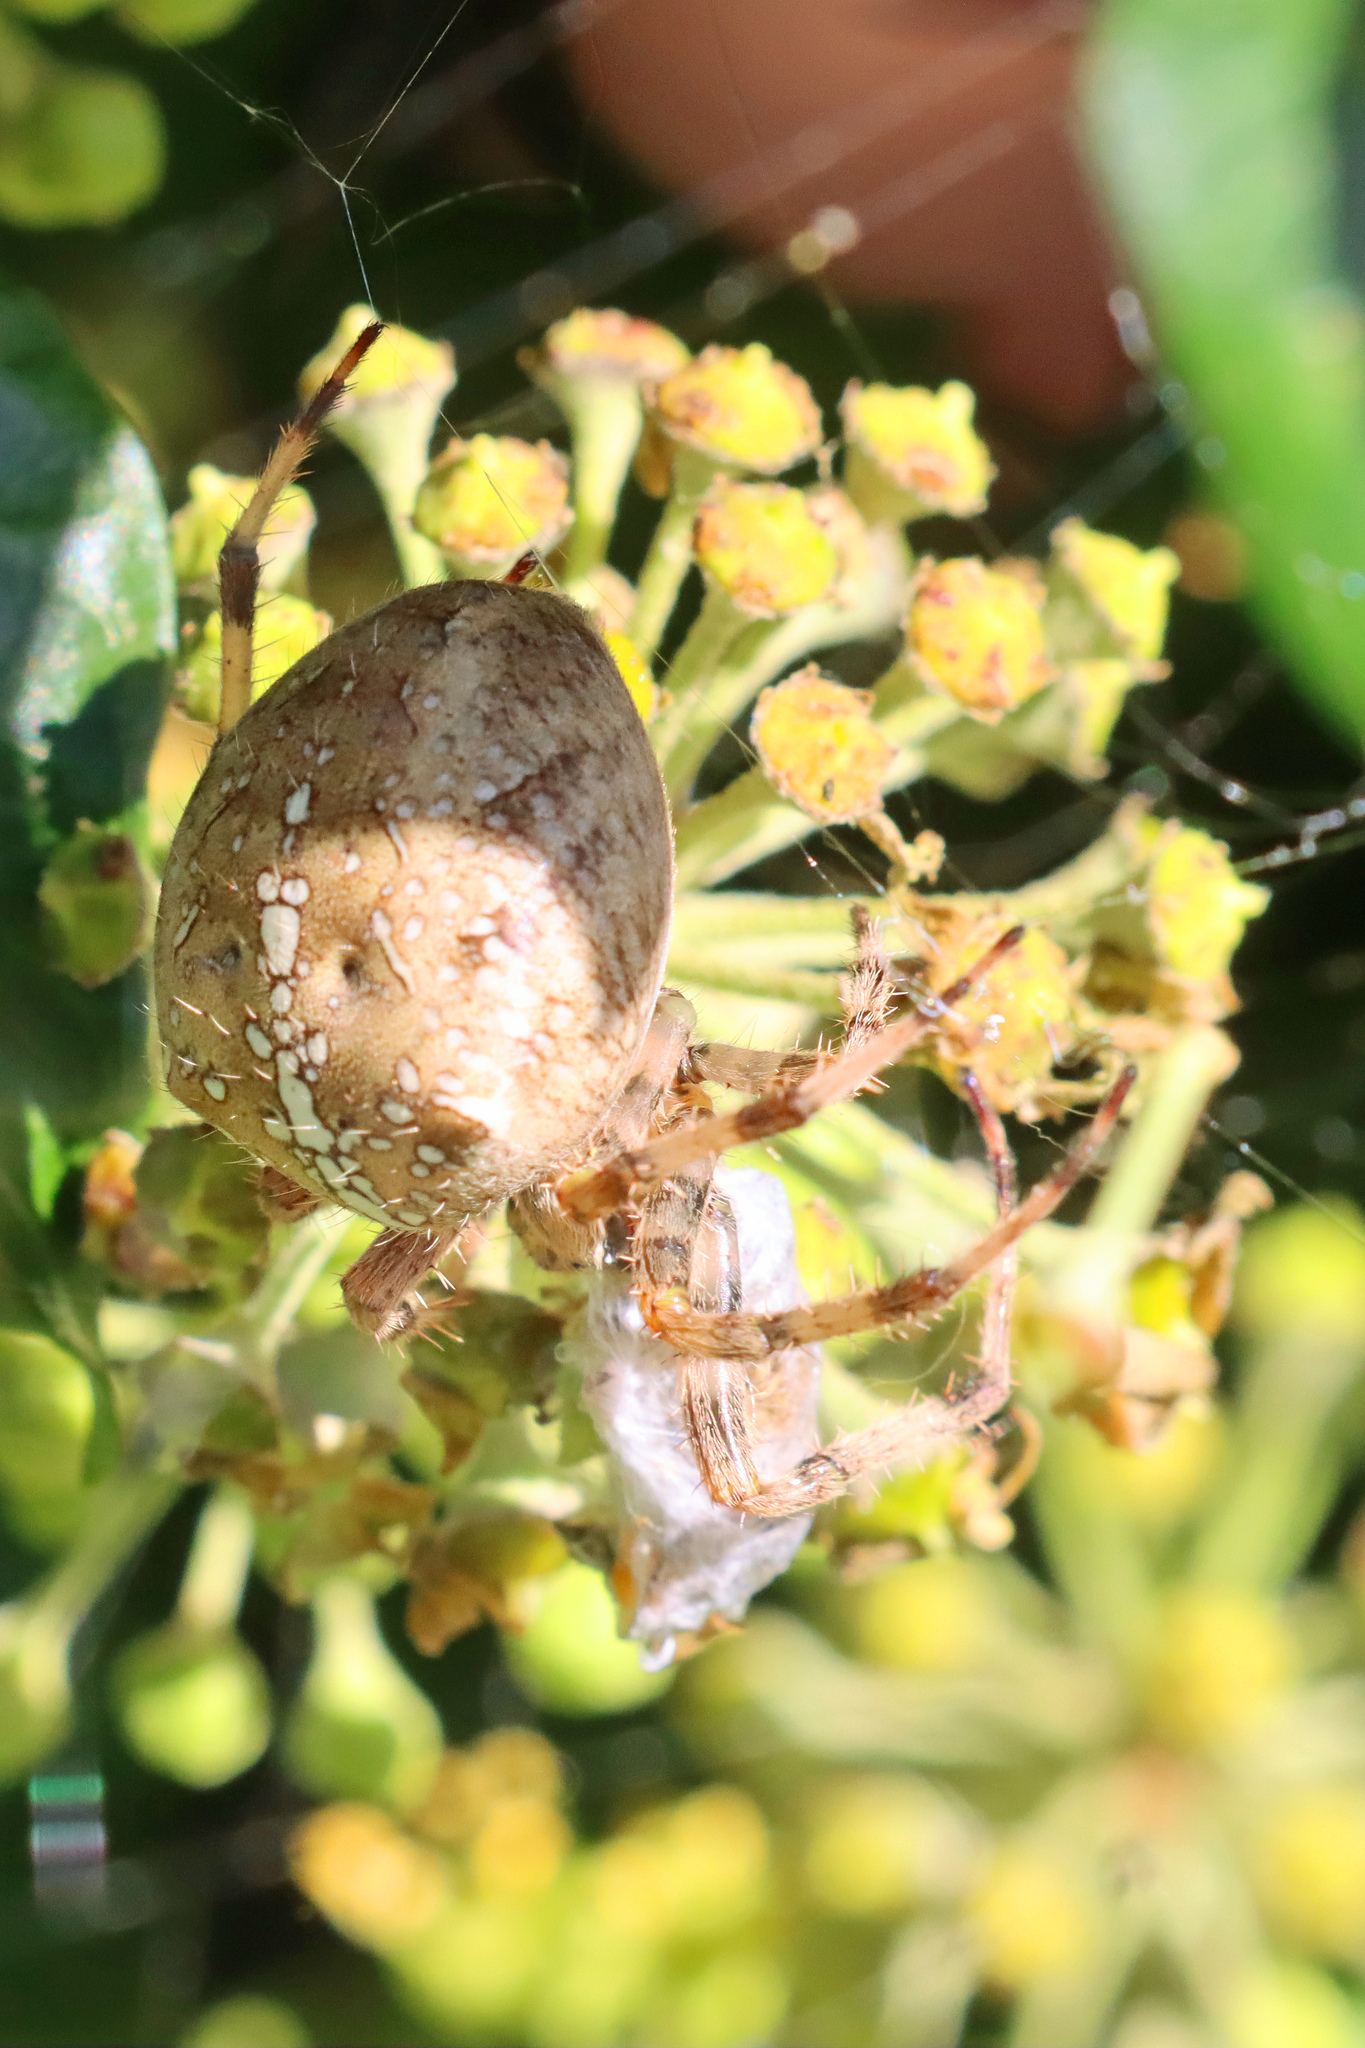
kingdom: Animalia
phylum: Arthropoda
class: Arachnida
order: Araneae
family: Araneidae
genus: Araneus
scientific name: Araneus diadematus
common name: Cross orbweaver
